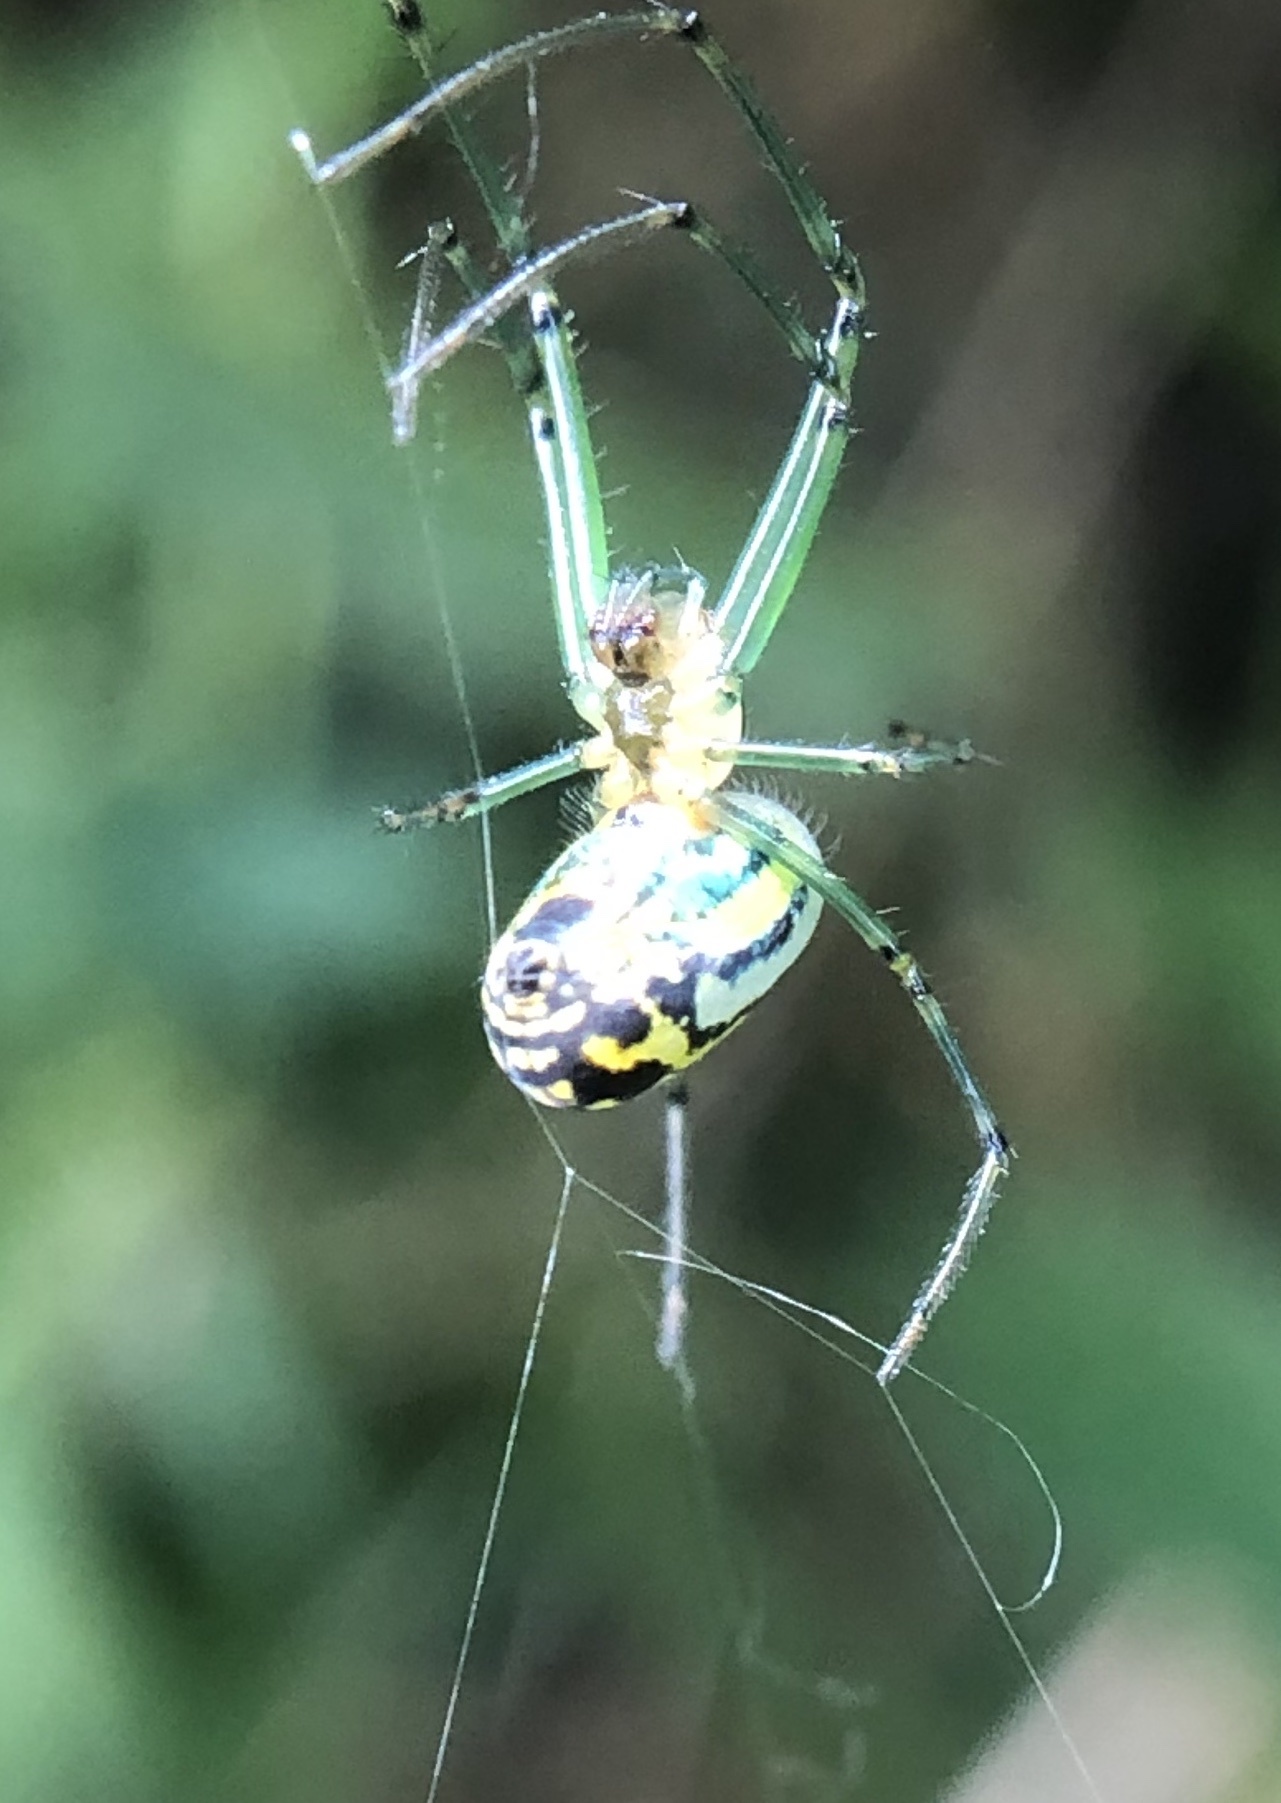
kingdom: Animalia
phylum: Arthropoda
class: Arachnida
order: Araneae
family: Tetragnathidae
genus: Leucauge
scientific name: Leucauge venusta
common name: Longjawed orb weavers
